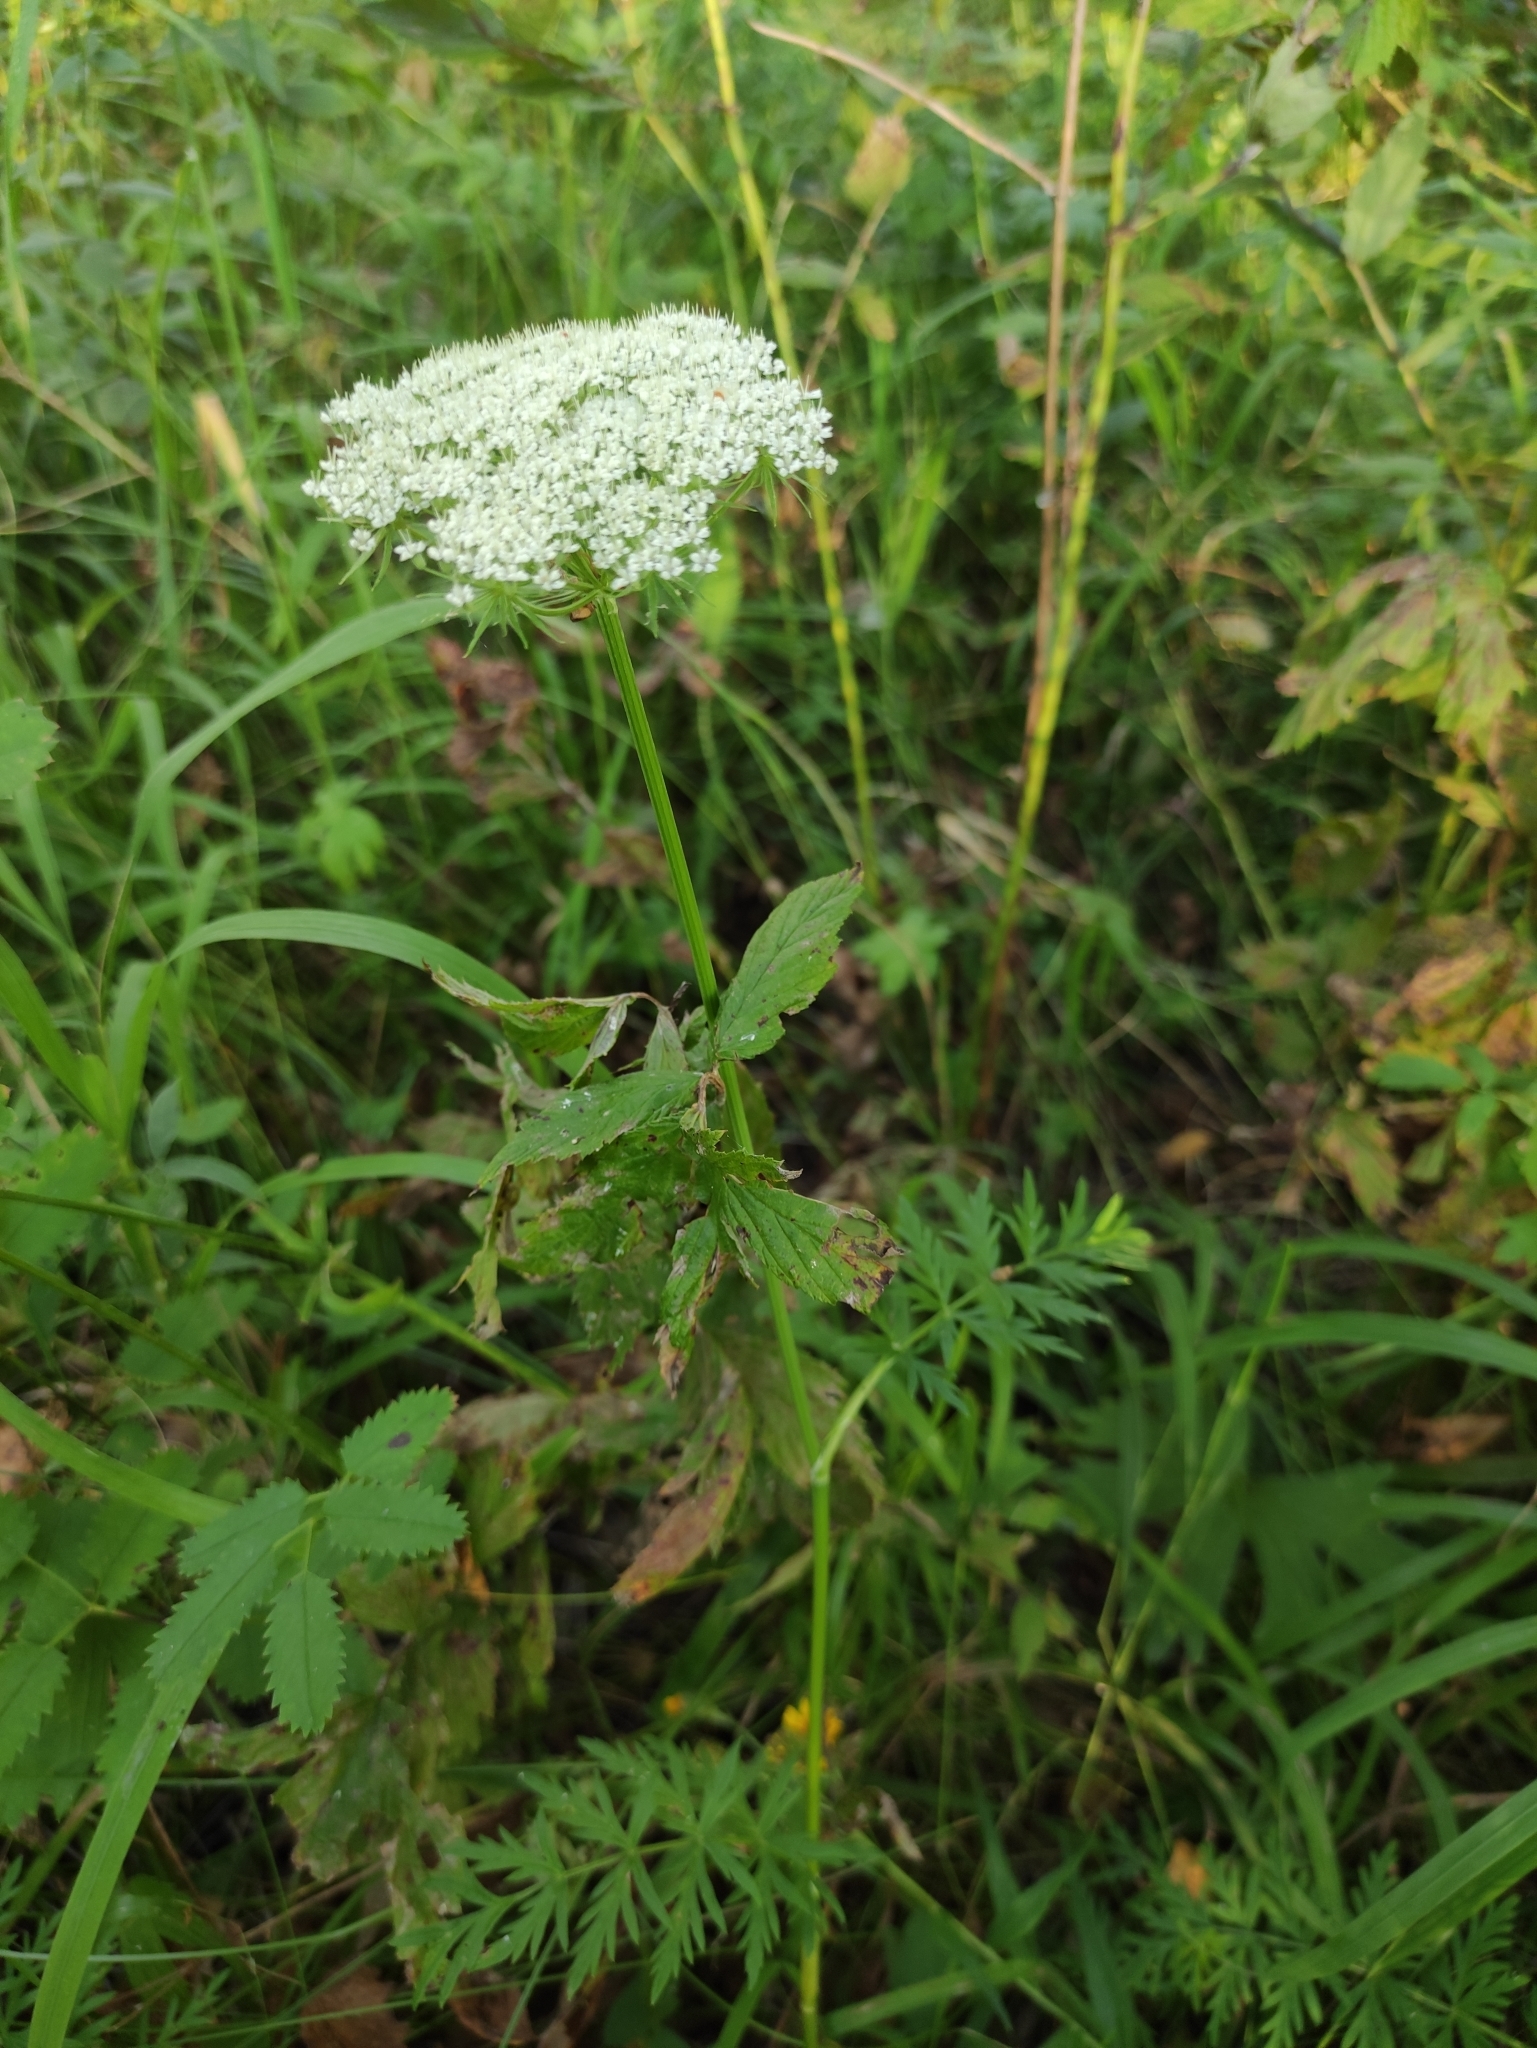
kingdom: Plantae
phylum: Tracheophyta
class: Magnoliopsida
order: Apiales
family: Apiaceae
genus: Seseli
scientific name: Seseli condensatum
